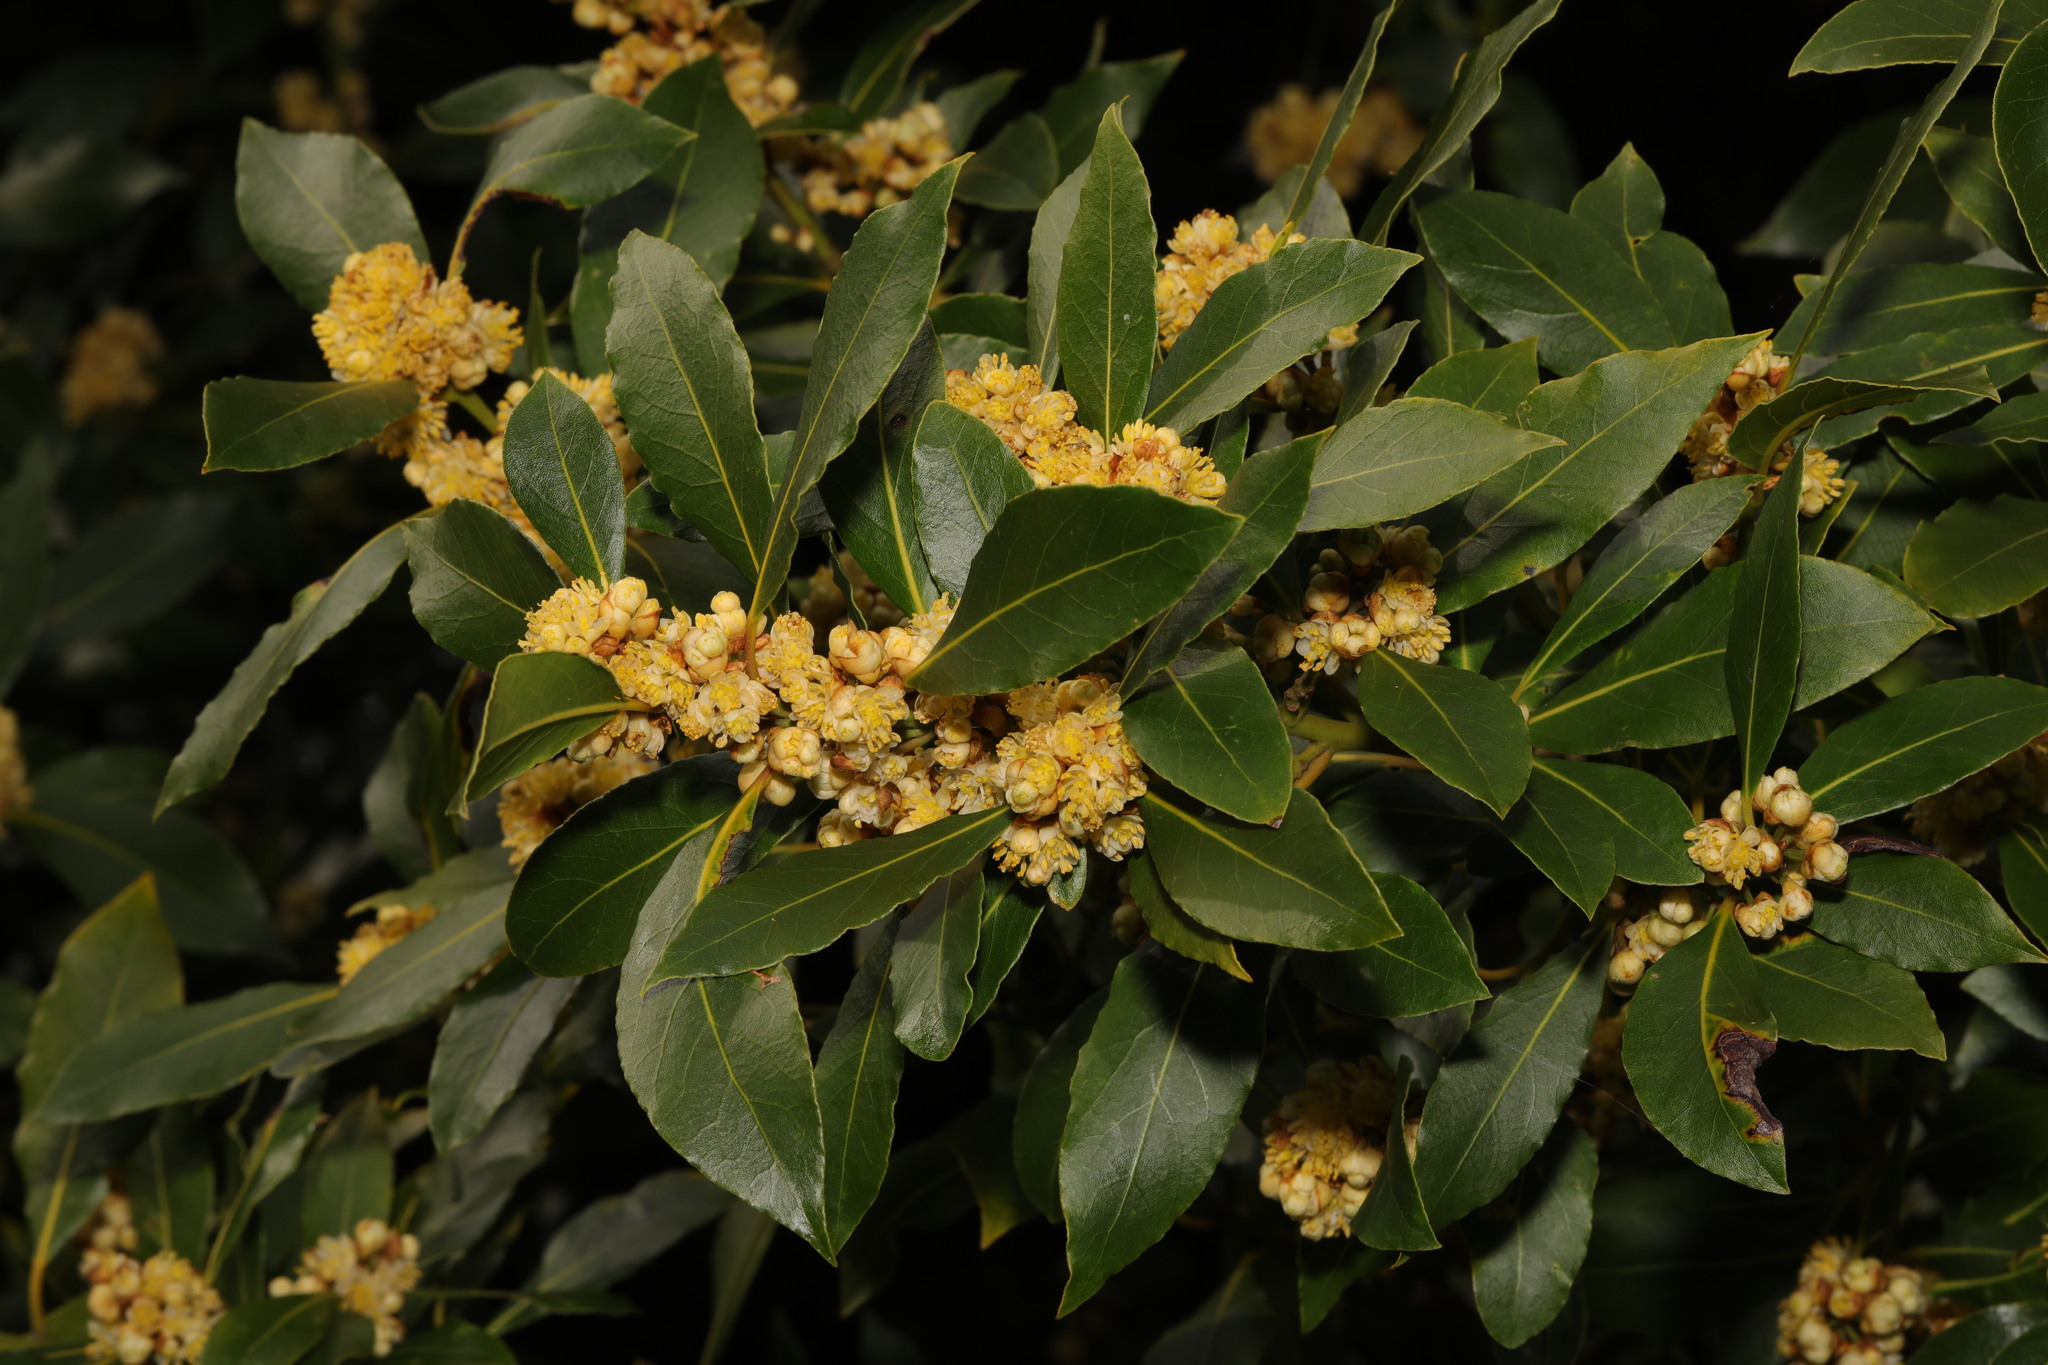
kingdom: Plantae
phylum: Tracheophyta
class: Magnoliopsida
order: Laurales
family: Lauraceae
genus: Laurus
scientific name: Laurus nobilis
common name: Bay
